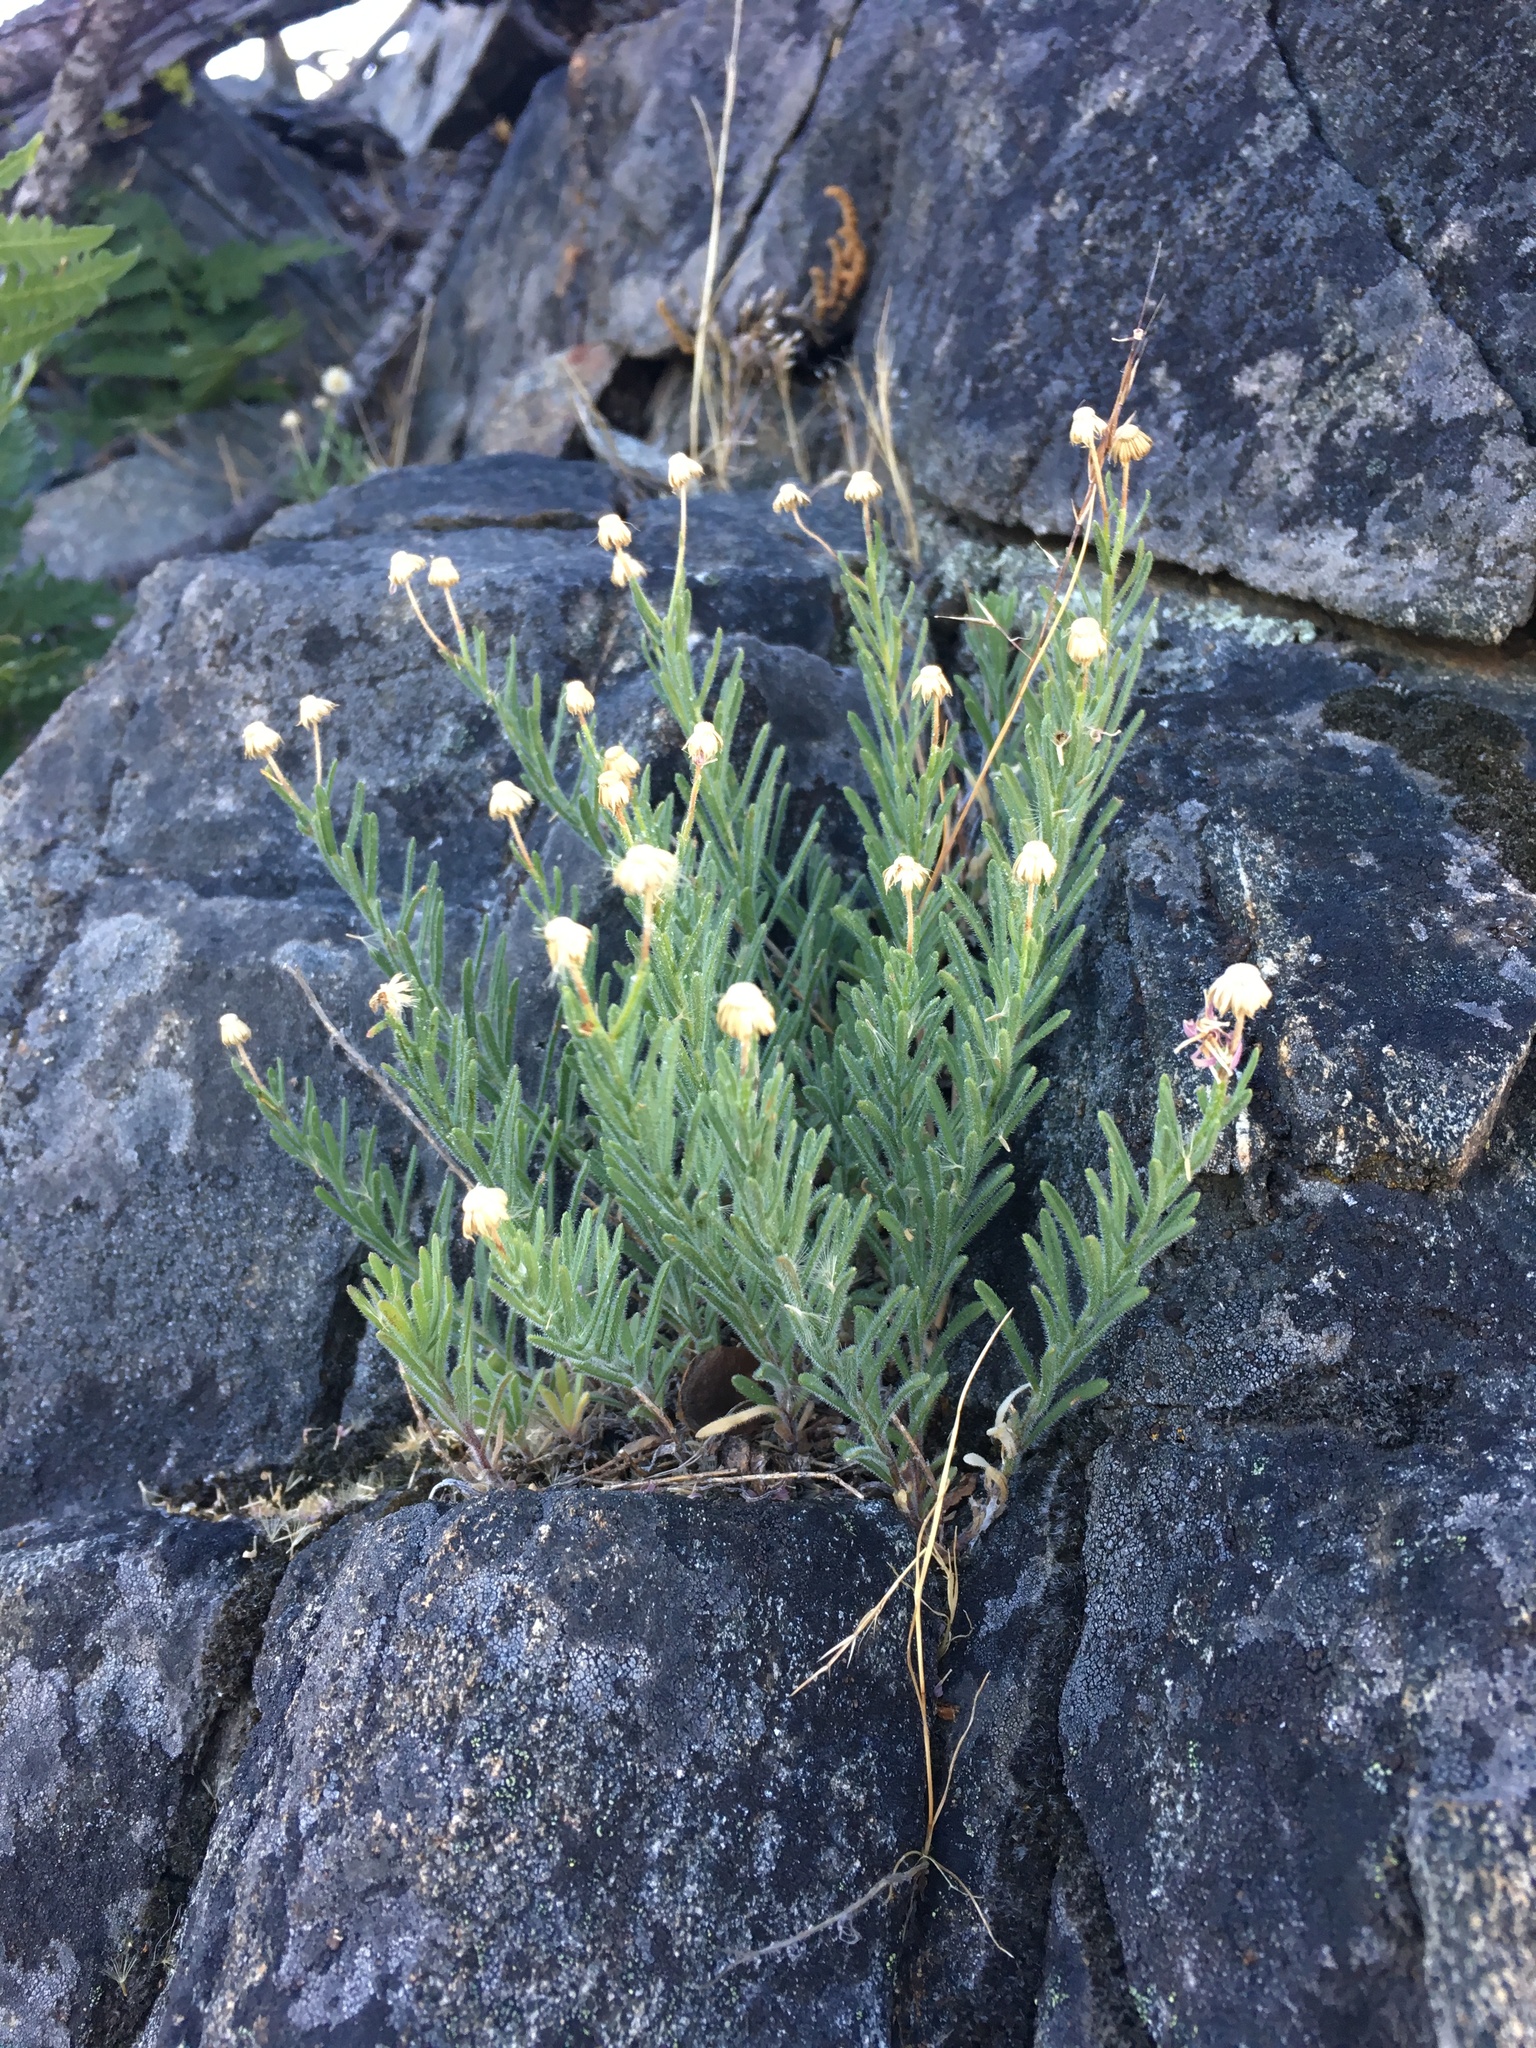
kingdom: Plantae
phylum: Tracheophyta
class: Magnoliopsida
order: Asterales
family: Asteraceae
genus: Erigeron
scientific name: Erigeron klamathensis
